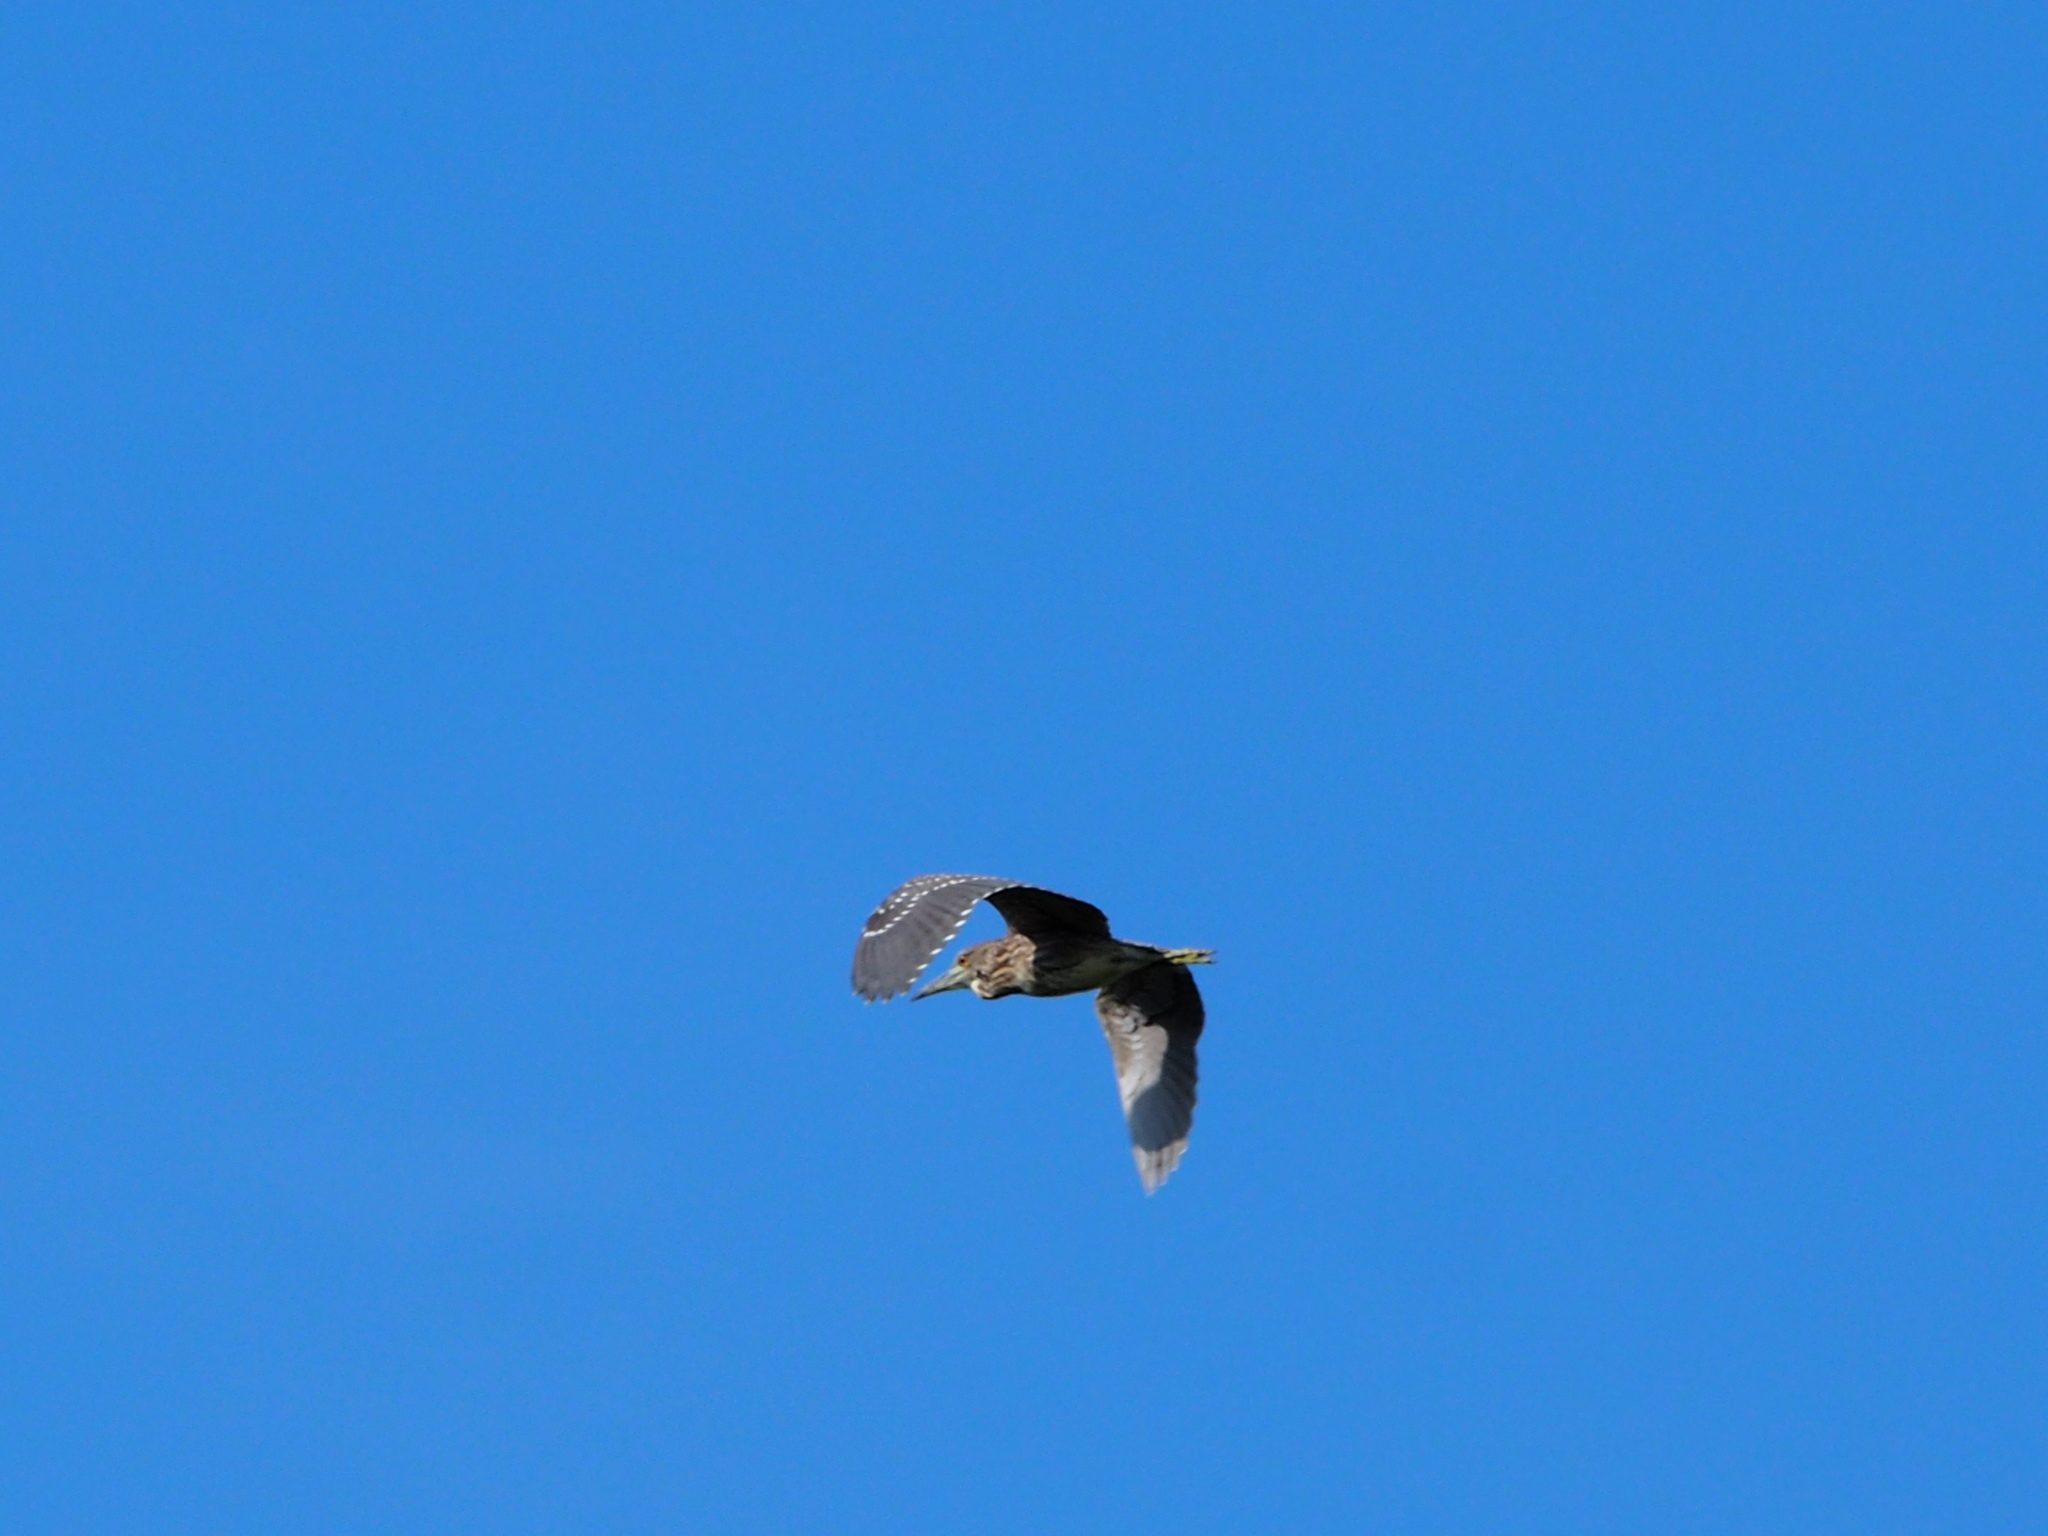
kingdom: Animalia
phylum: Chordata
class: Aves
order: Pelecaniformes
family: Ardeidae
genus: Nycticorax
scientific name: Nycticorax nycticorax
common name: Black-crowned night heron
